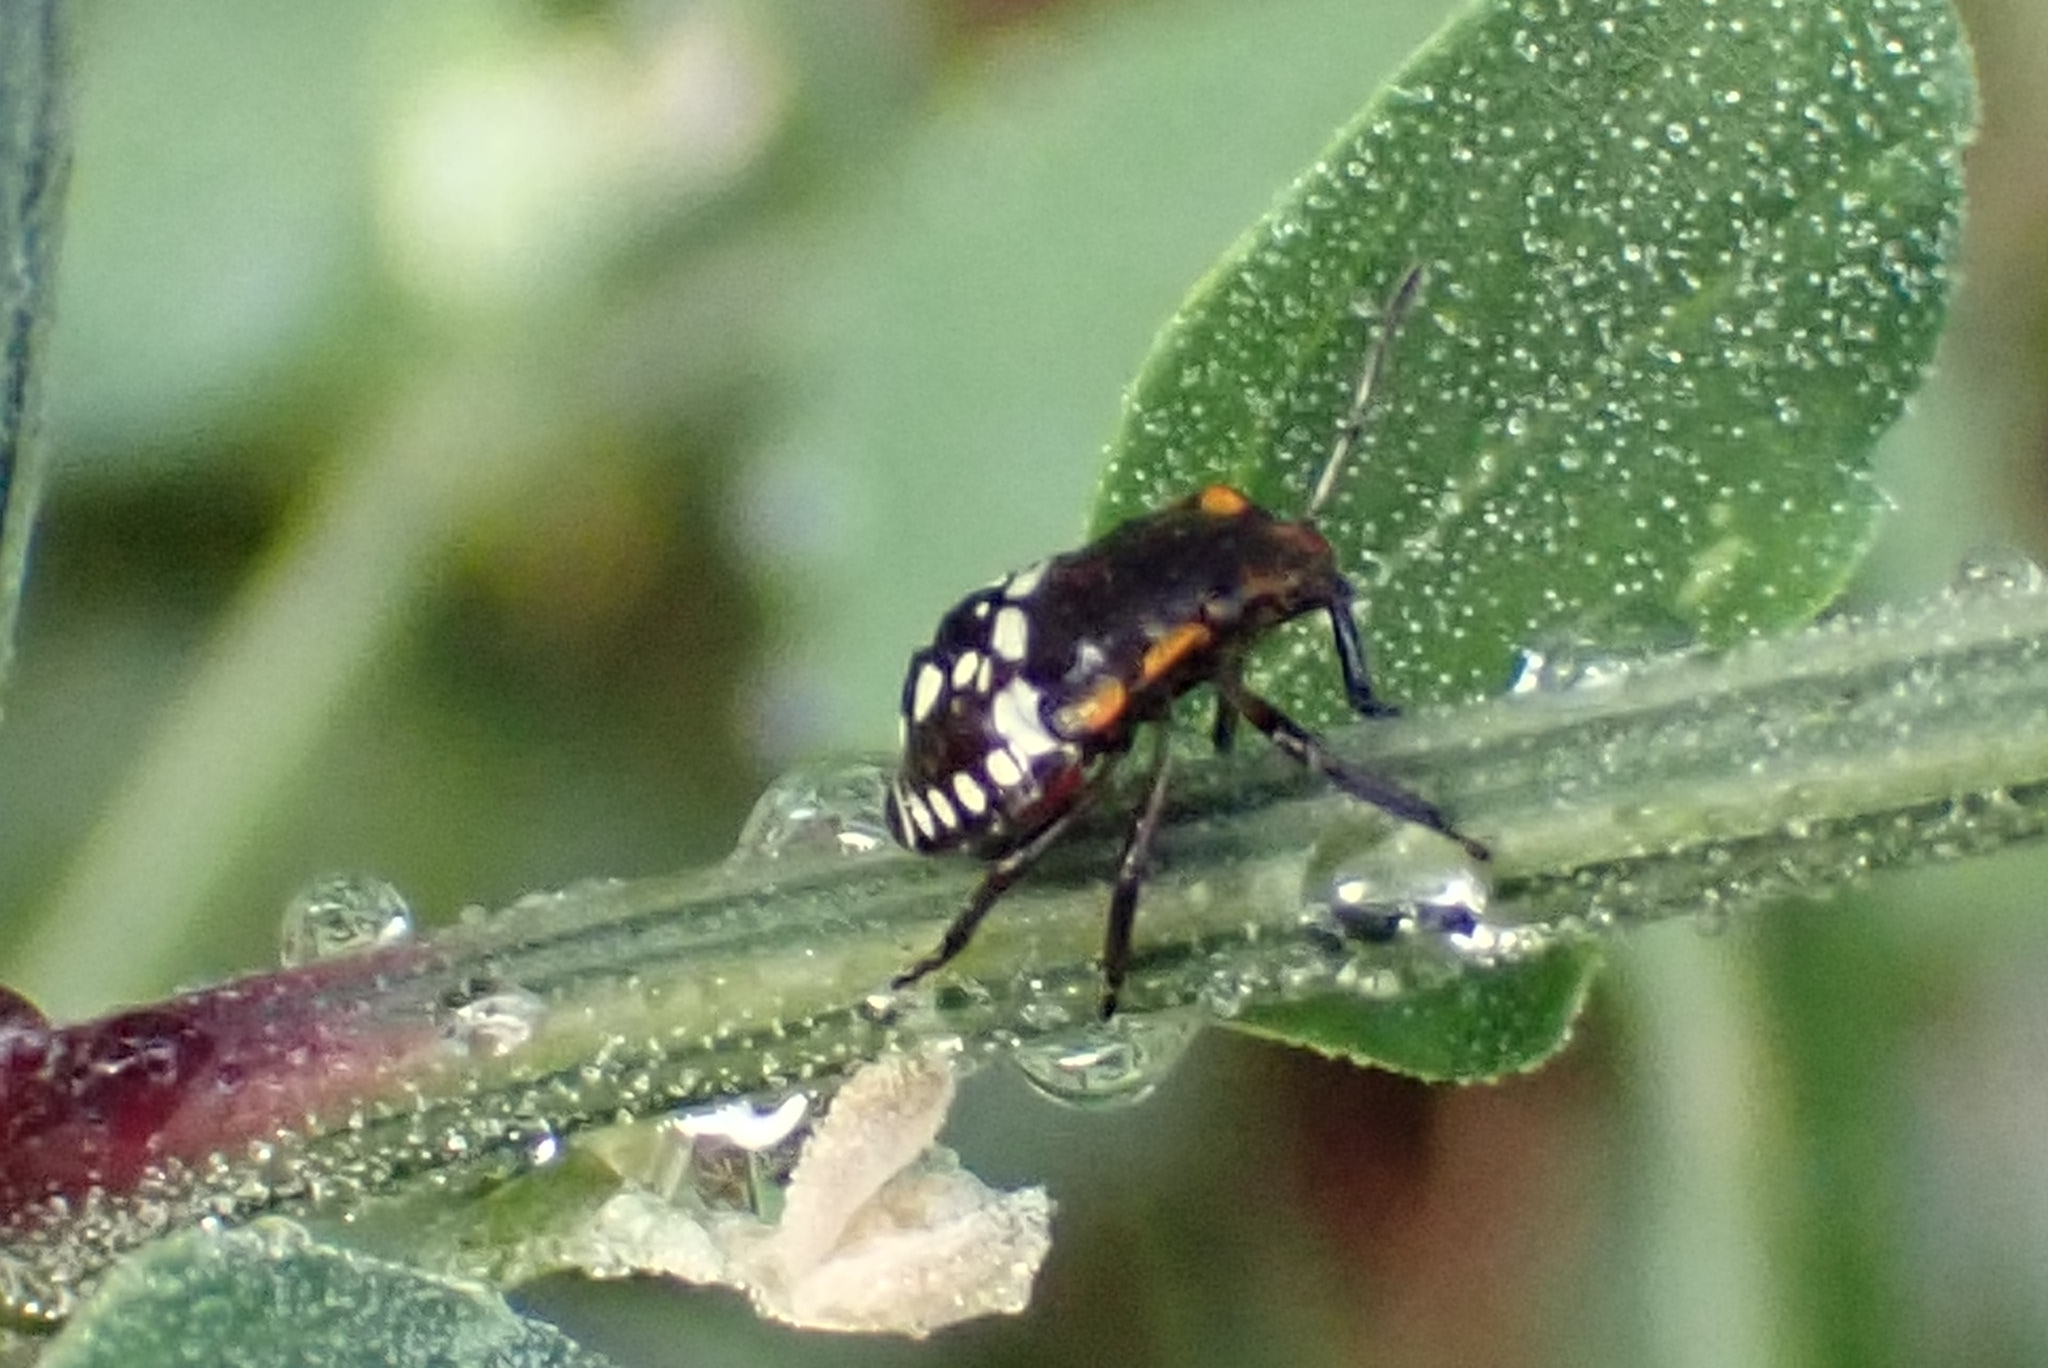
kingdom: Animalia
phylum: Arthropoda
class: Insecta
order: Hemiptera
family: Pentatomidae
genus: Nezara
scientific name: Nezara viridula
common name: Southern green stink bug
